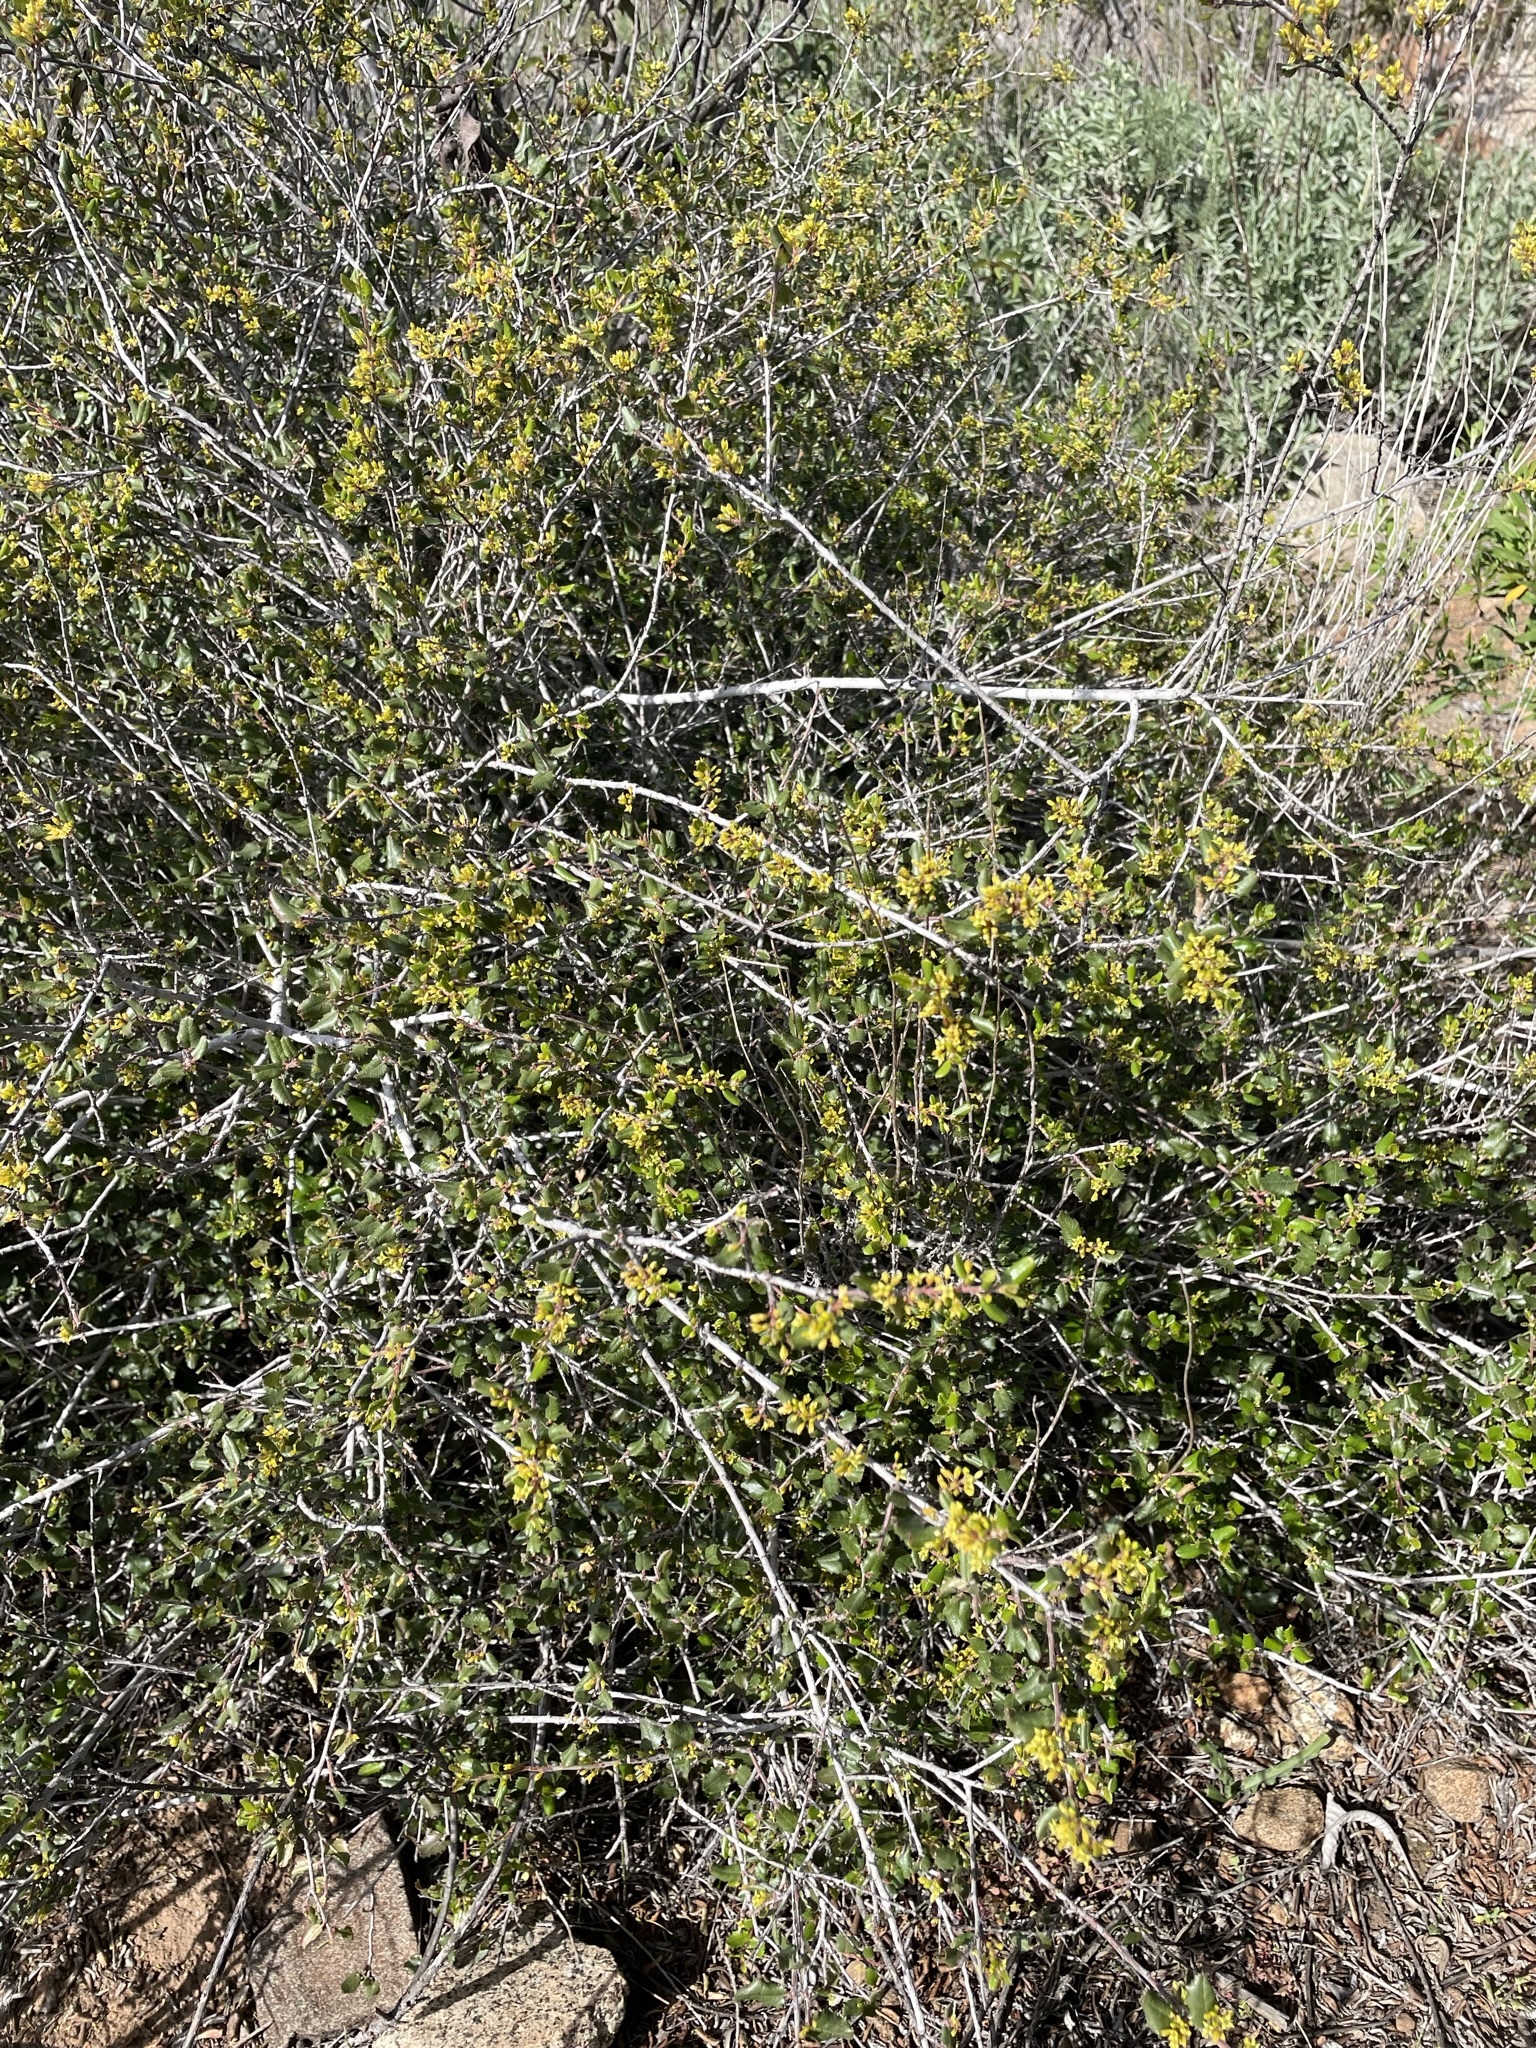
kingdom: Plantae
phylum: Tracheophyta
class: Magnoliopsida
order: Rosales
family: Rhamnaceae
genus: Endotropis
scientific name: Endotropis crocea
